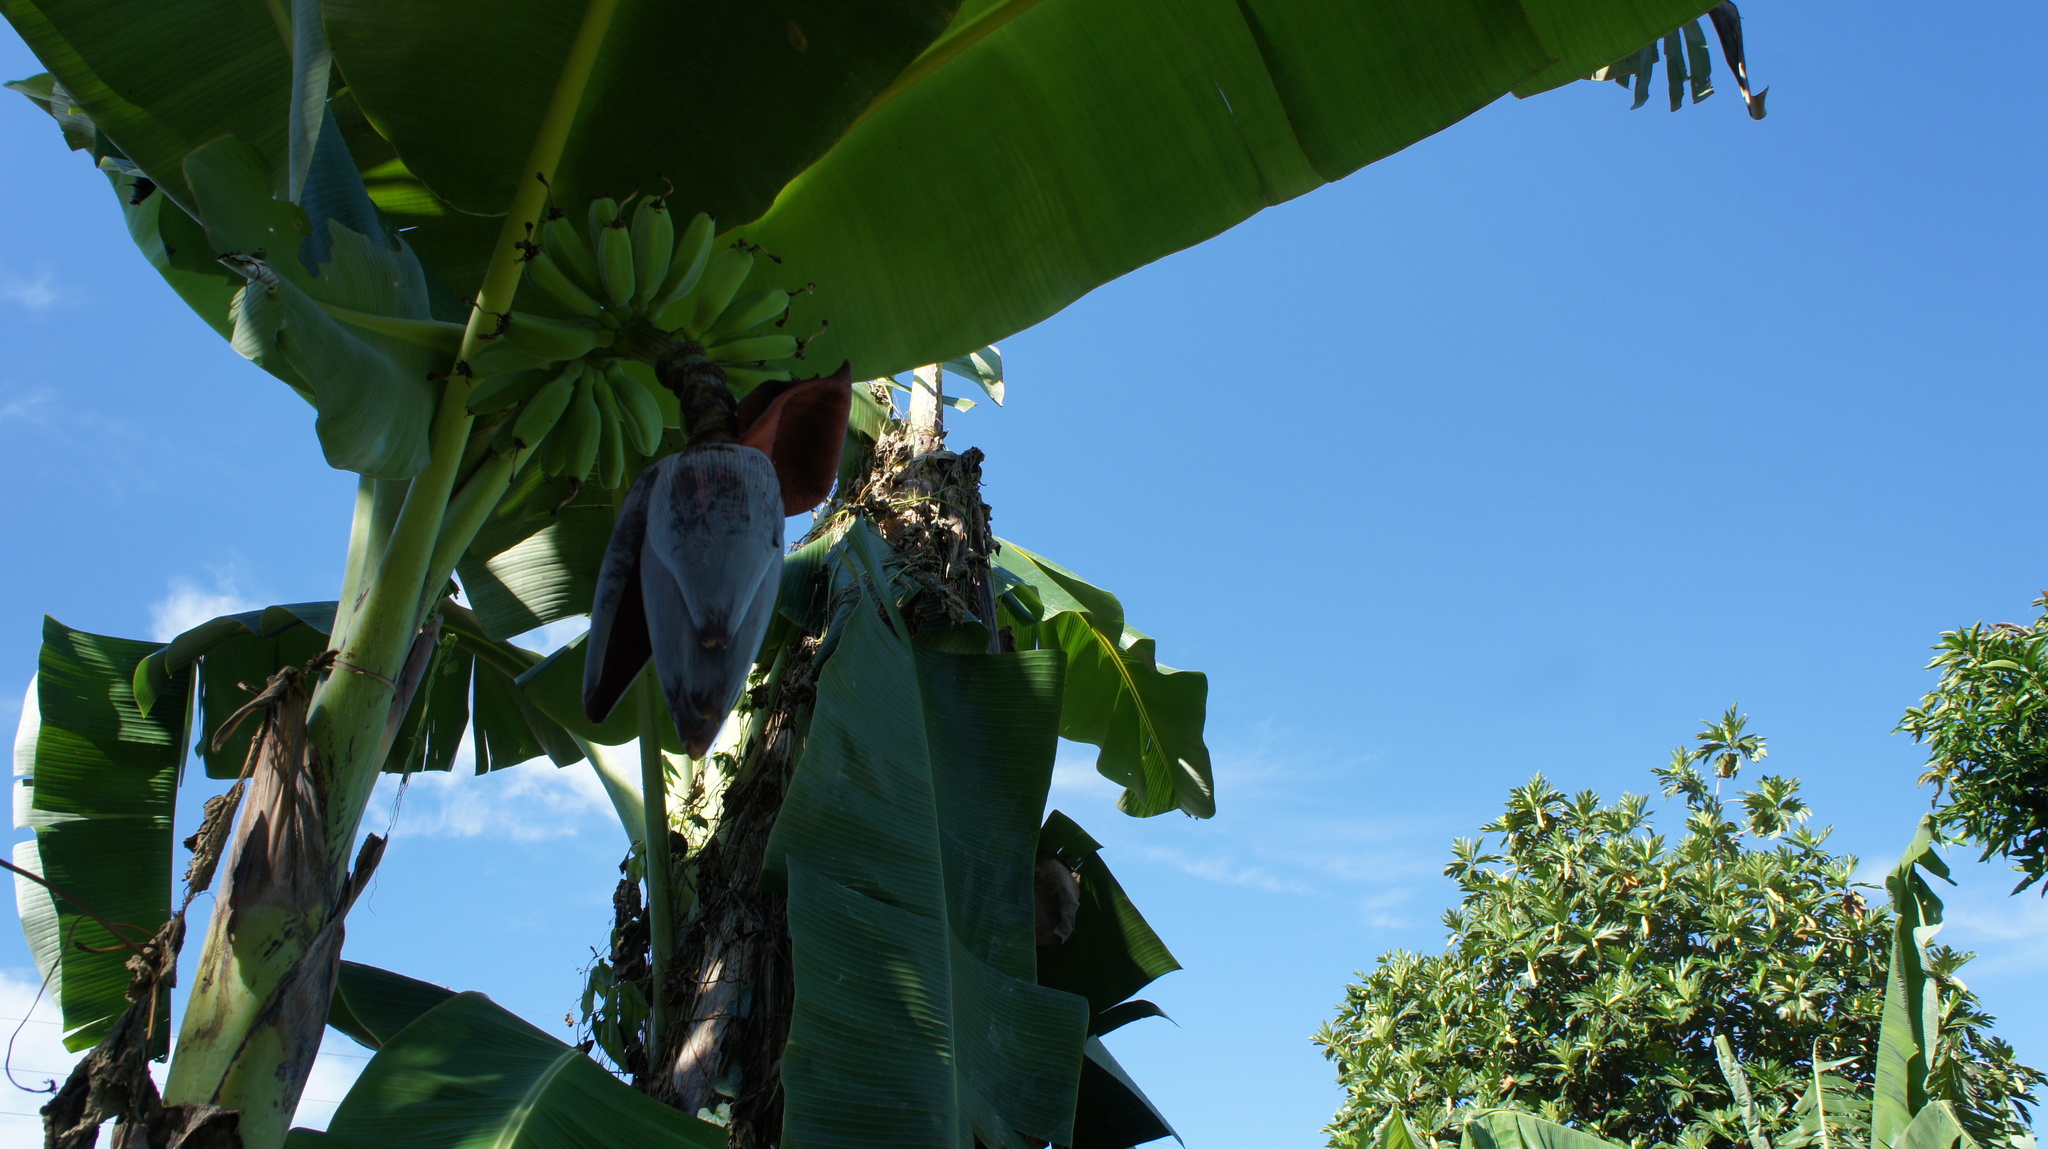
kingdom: Plantae
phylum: Tracheophyta
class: Liliopsida
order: Zingiberales
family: Musaceae
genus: Musa
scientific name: Musa paradisiaca
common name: French plantain
